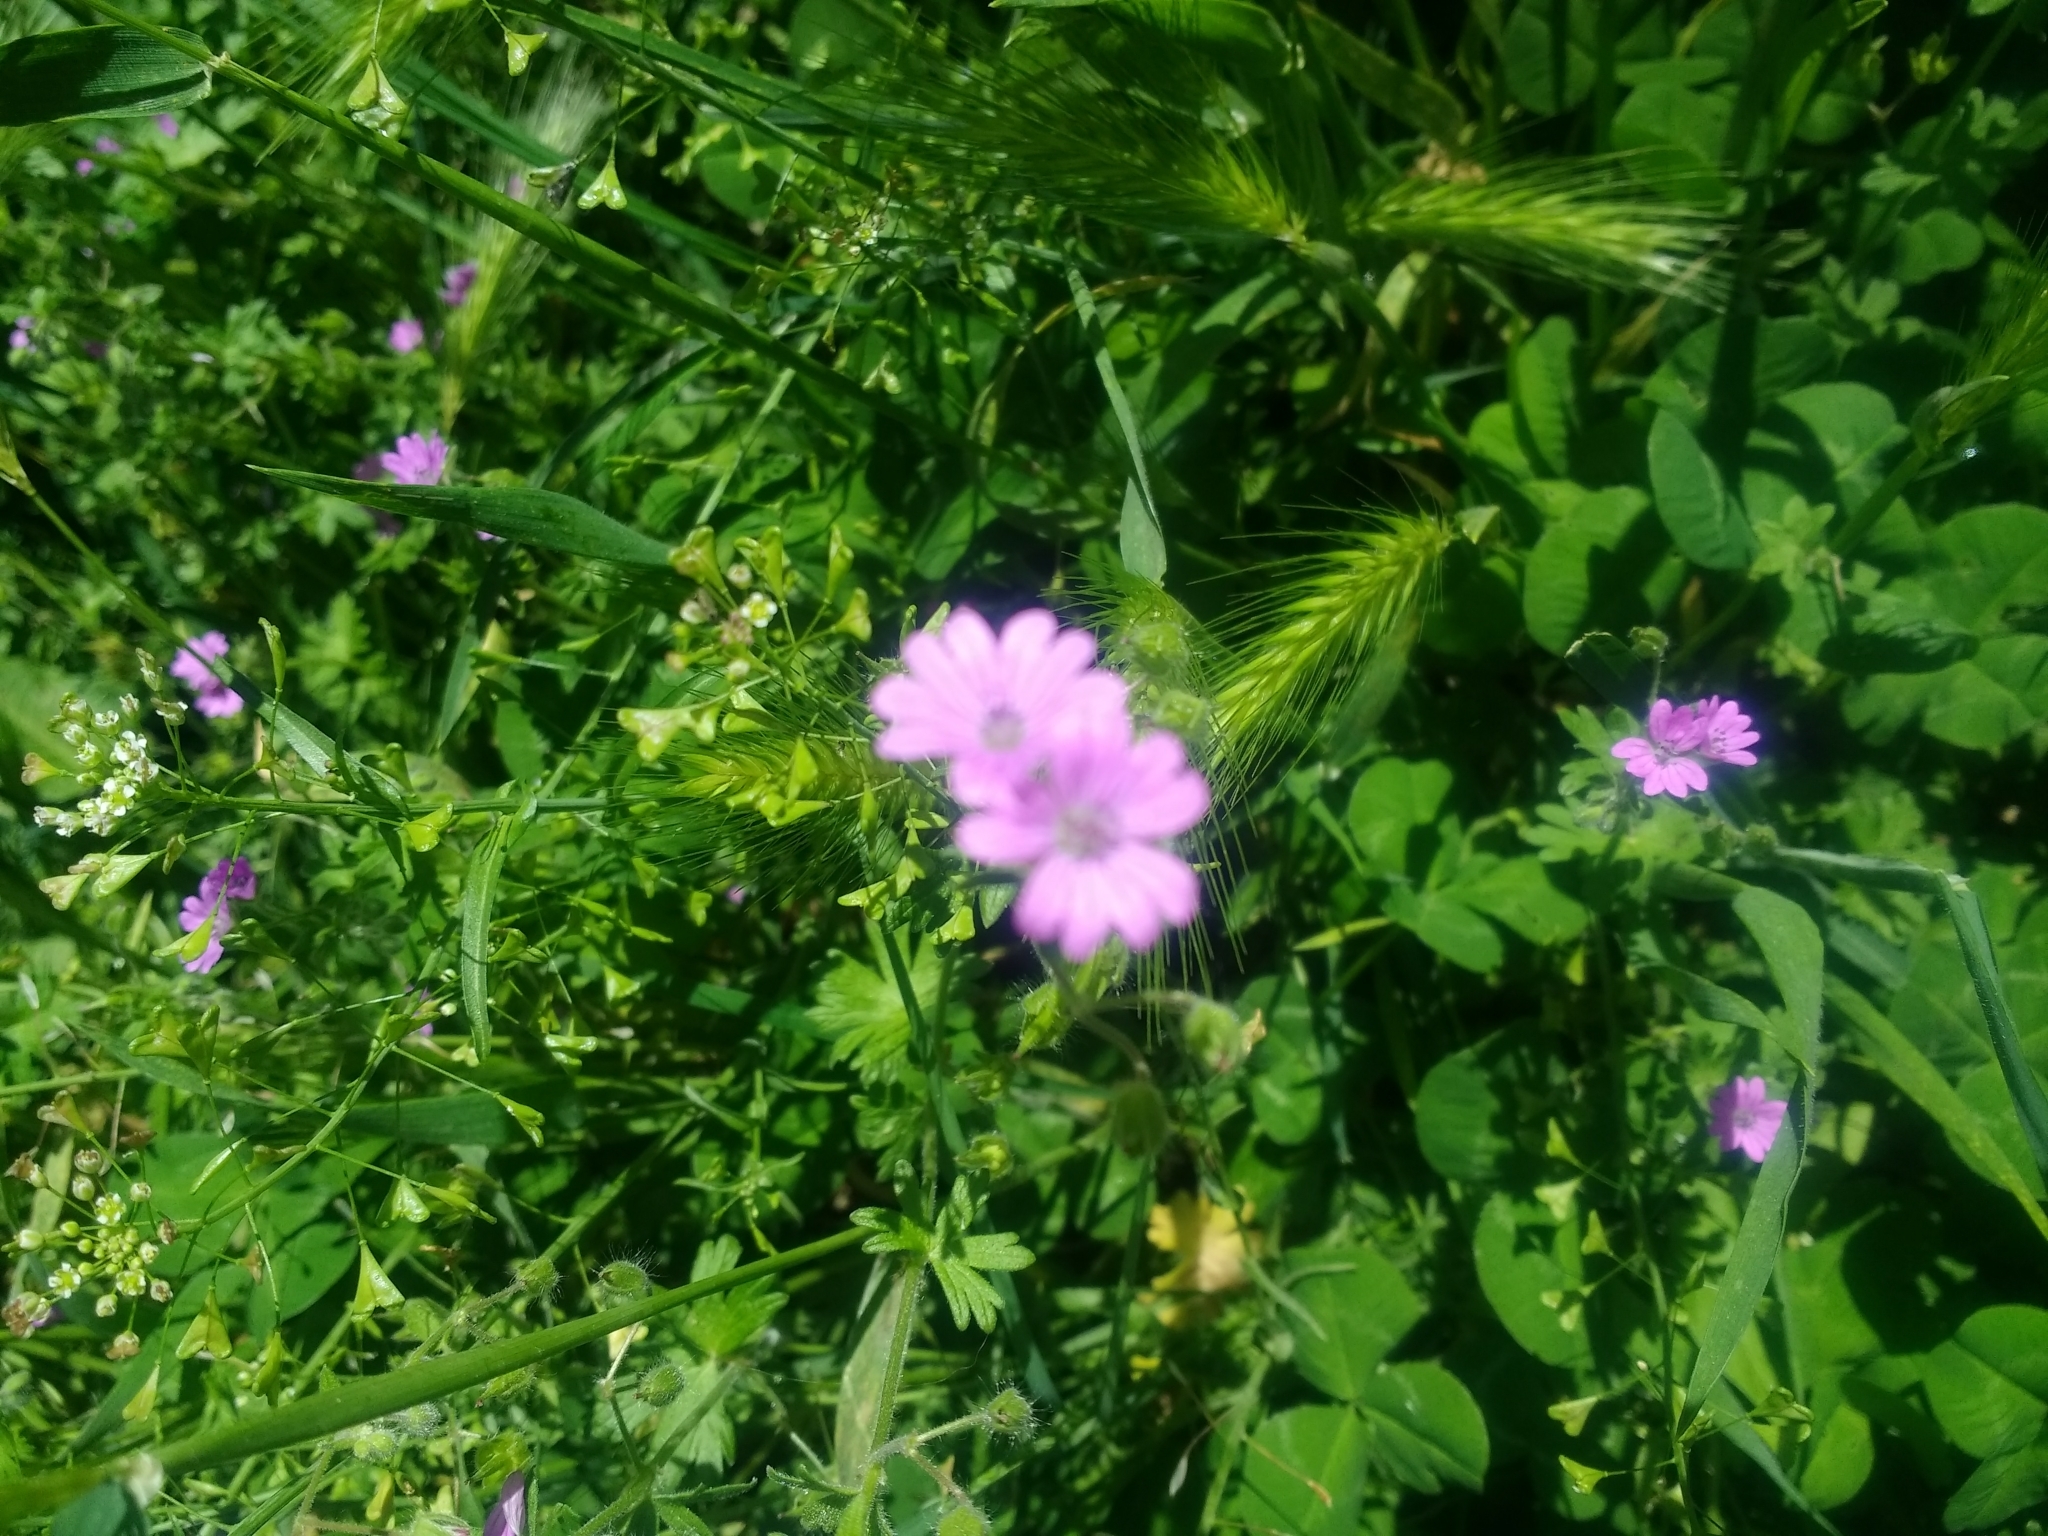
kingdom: Plantae
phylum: Tracheophyta
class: Magnoliopsida
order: Geraniales
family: Geraniaceae
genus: Geranium
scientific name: Geranium molle
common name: Dove's-foot crane's-bill
